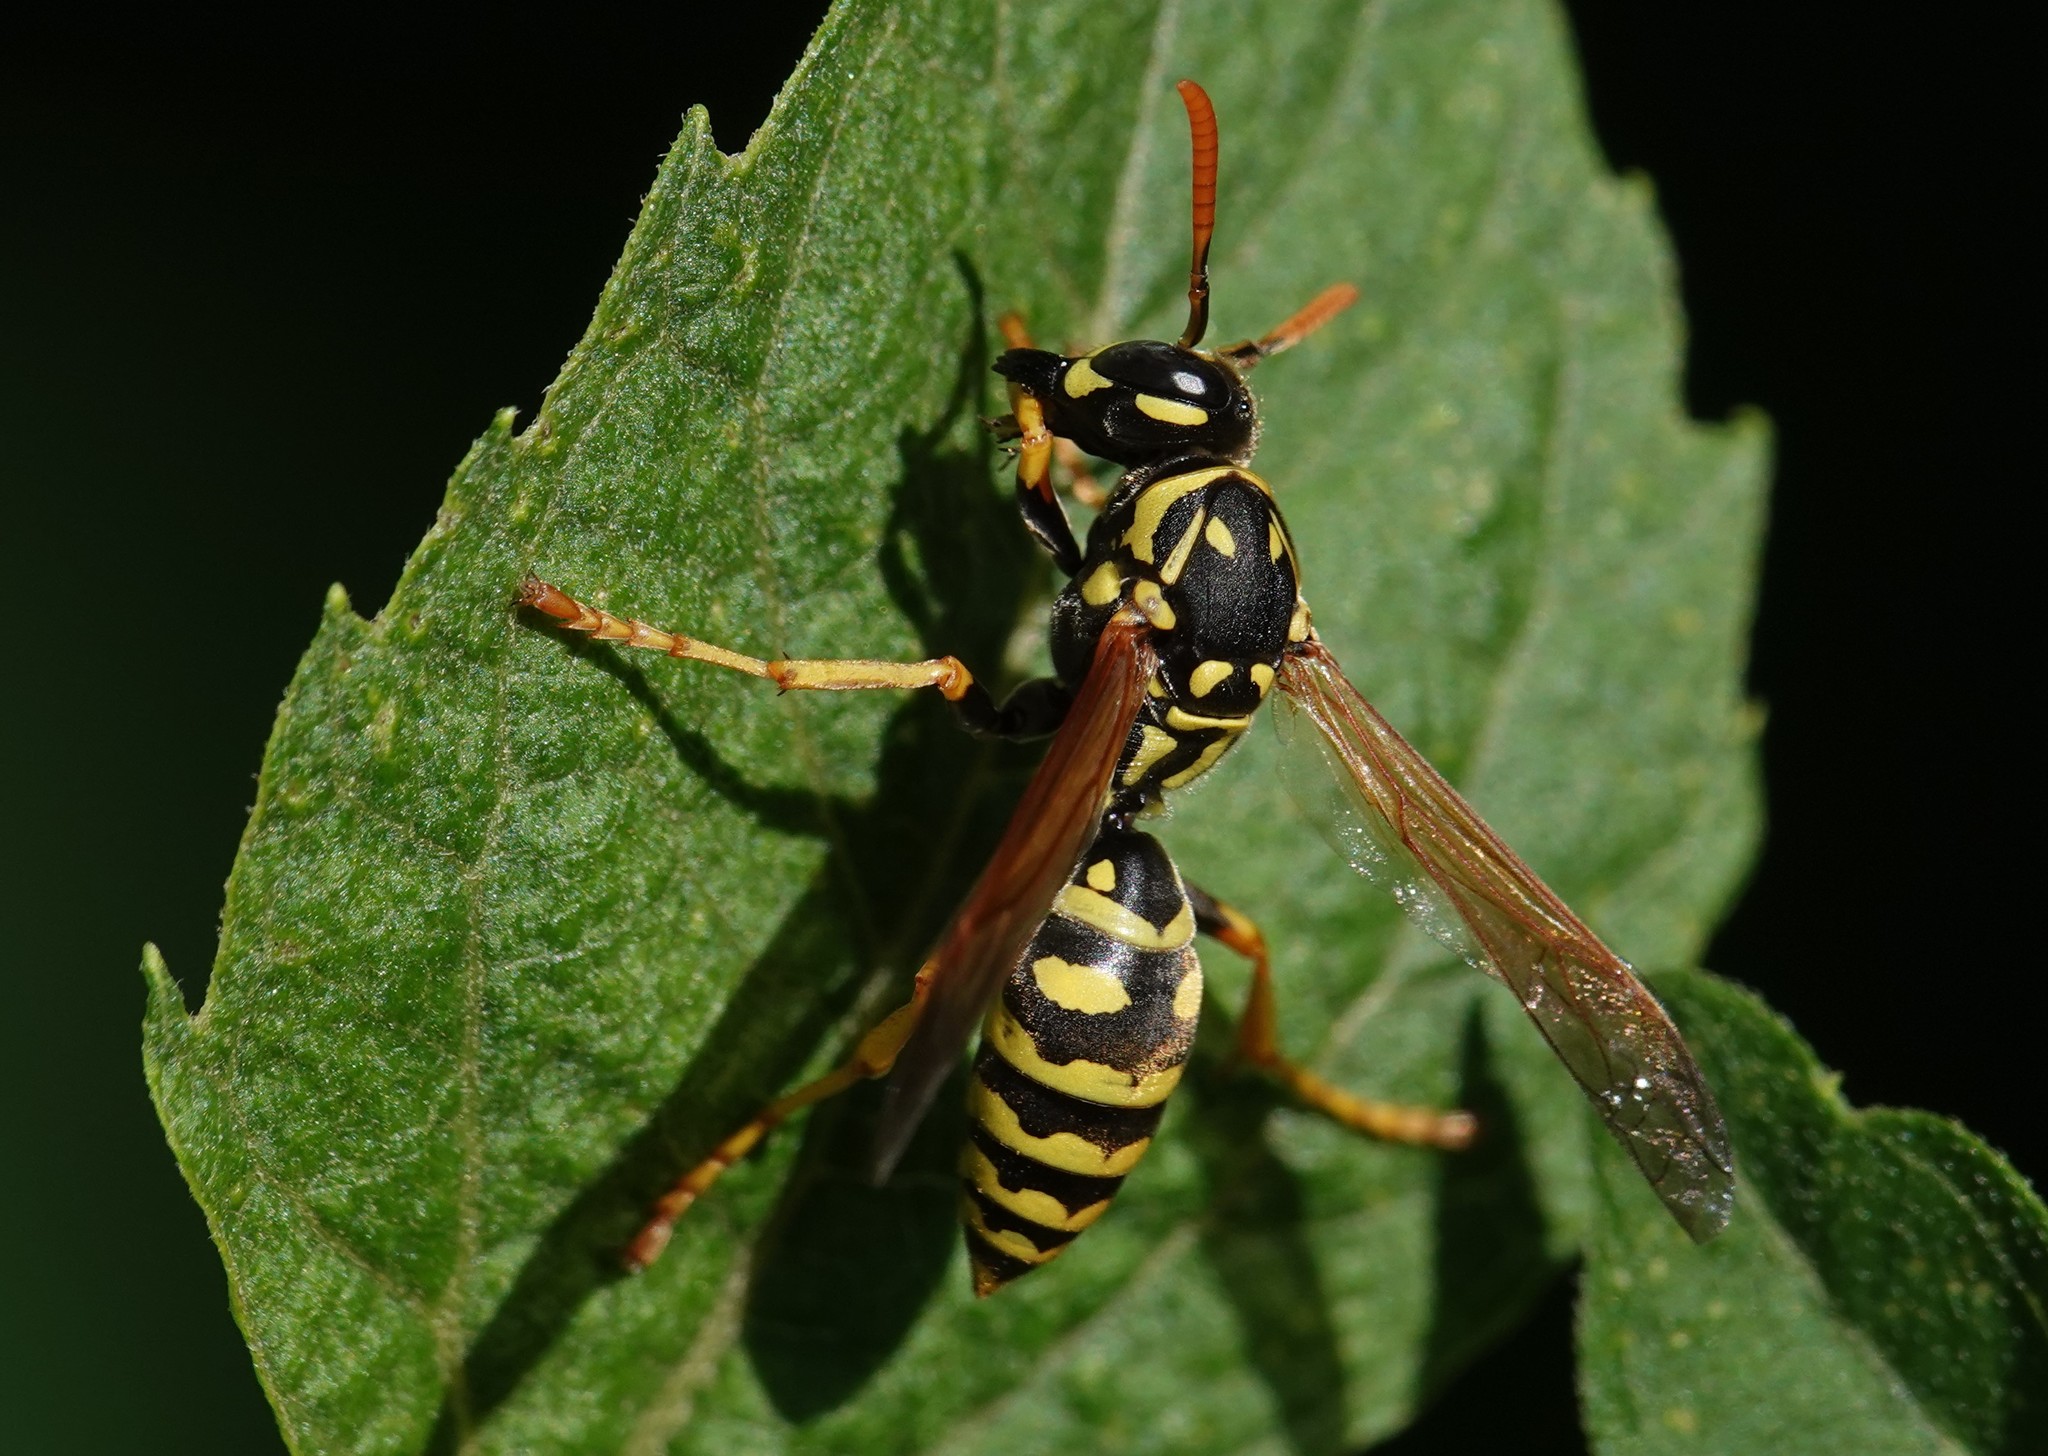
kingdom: Animalia
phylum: Arthropoda
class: Insecta
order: Hymenoptera
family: Eumenidae
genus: Polistes
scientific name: Polistes dominula
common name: Paper wasp
